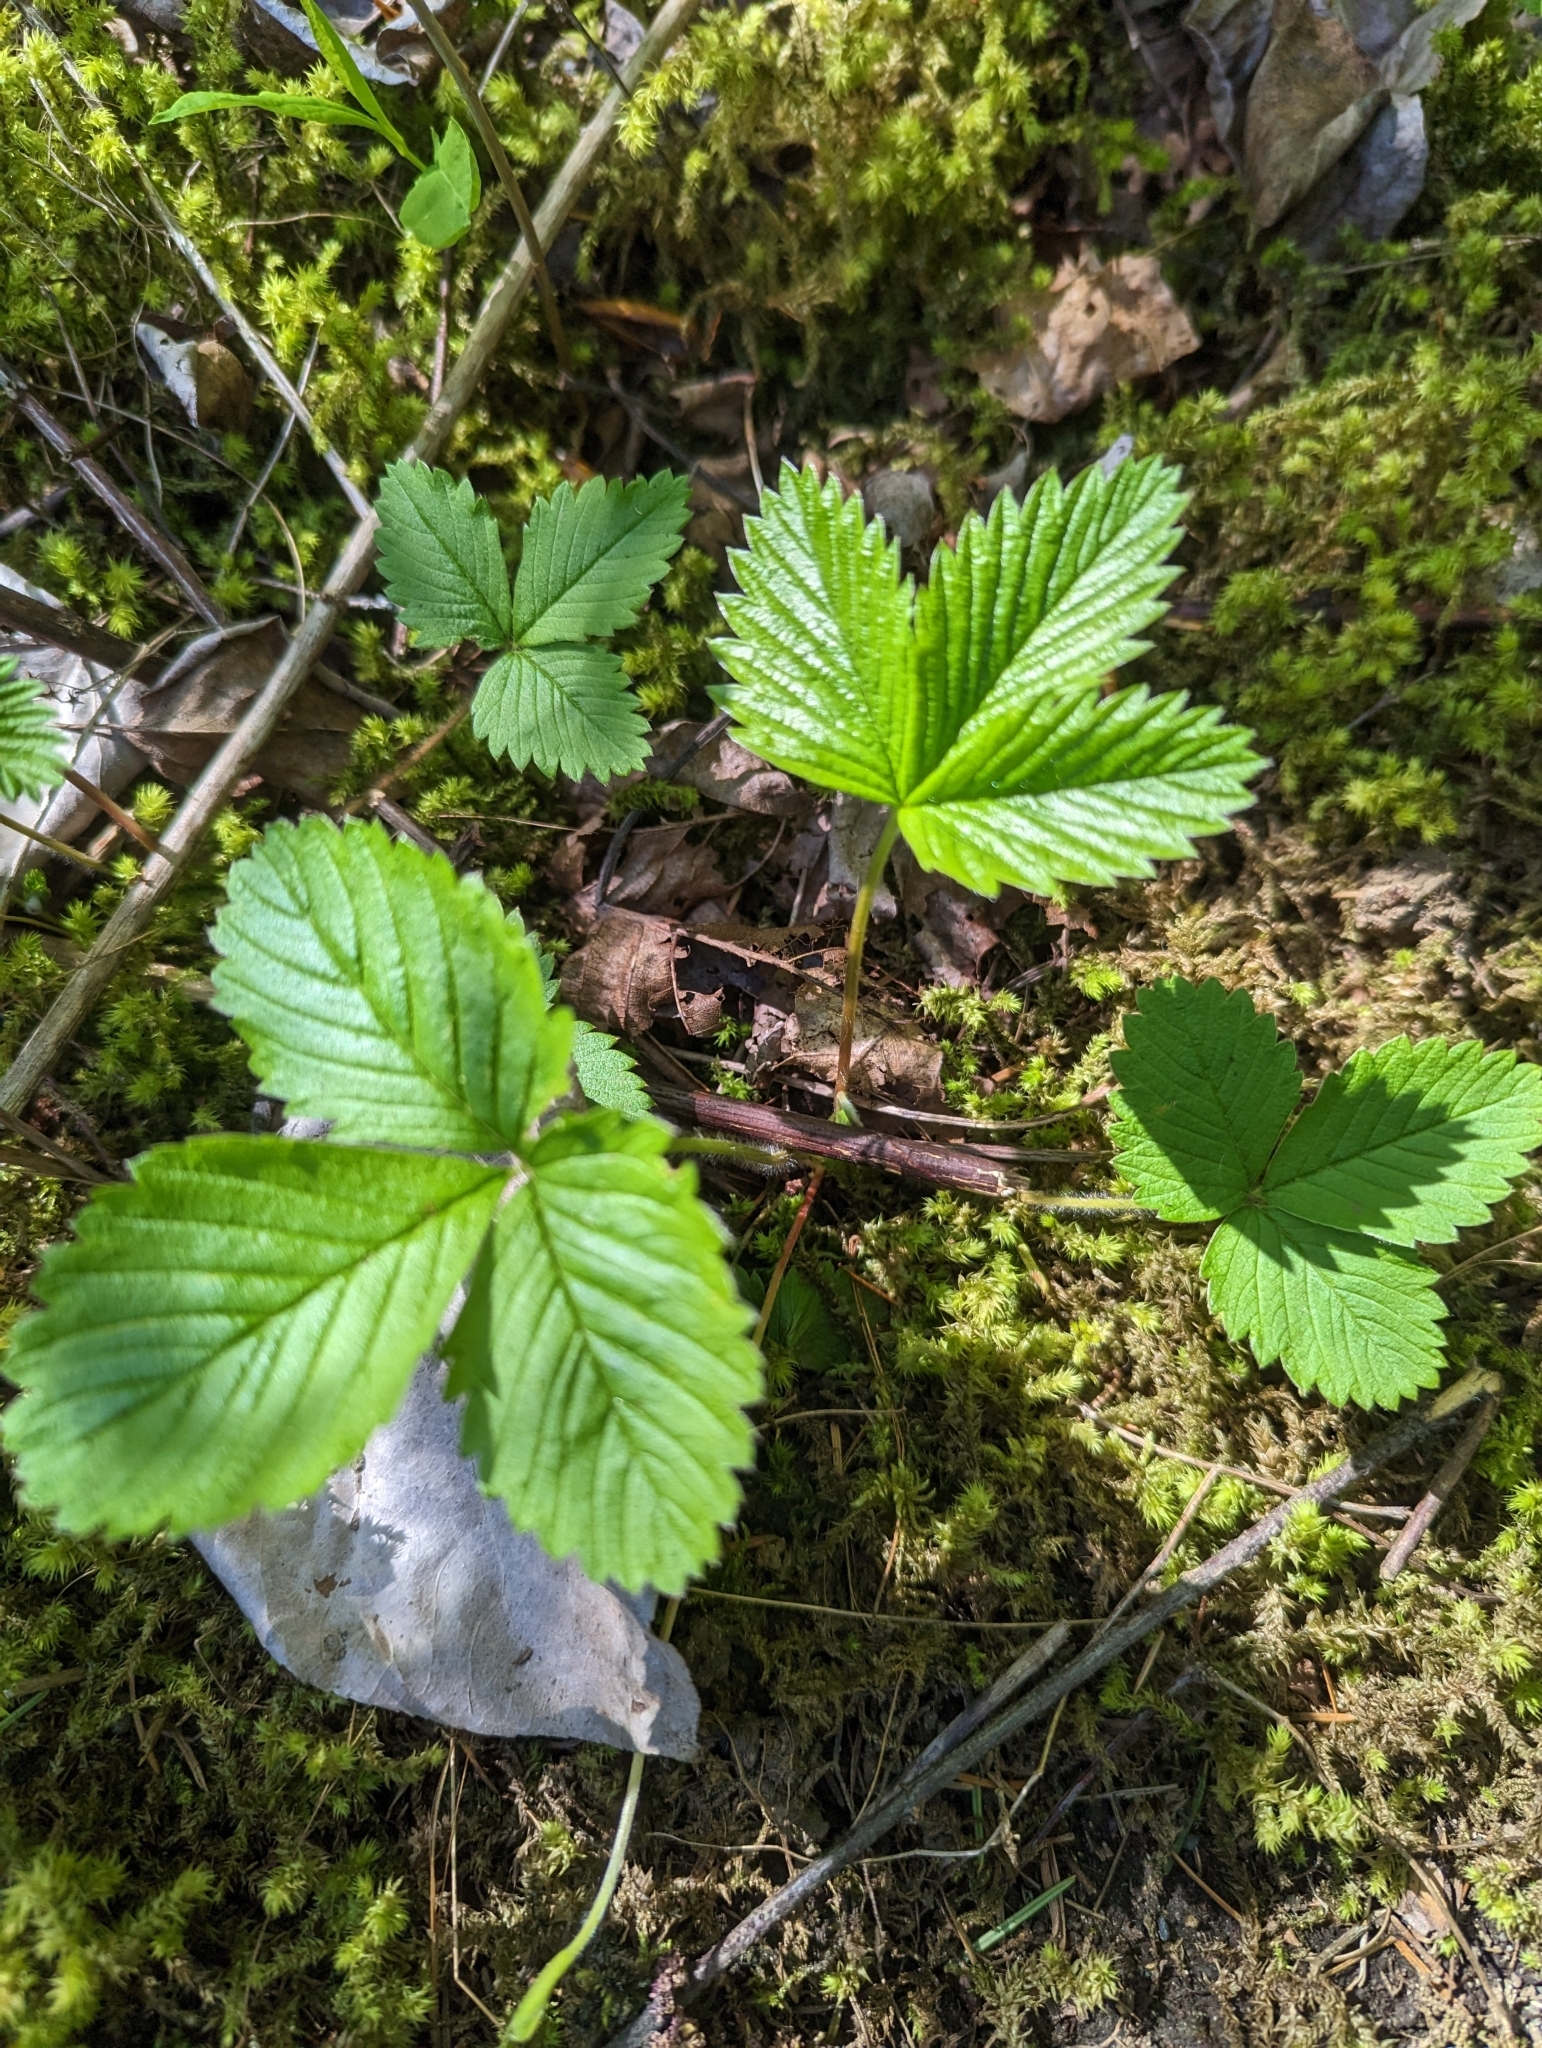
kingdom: Plantae
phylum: Tracheophyta
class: Magnoliopsida
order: Rosales
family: Rosaceae
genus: Fragaria
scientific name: Fragaria vesca
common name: Wild strawberry
